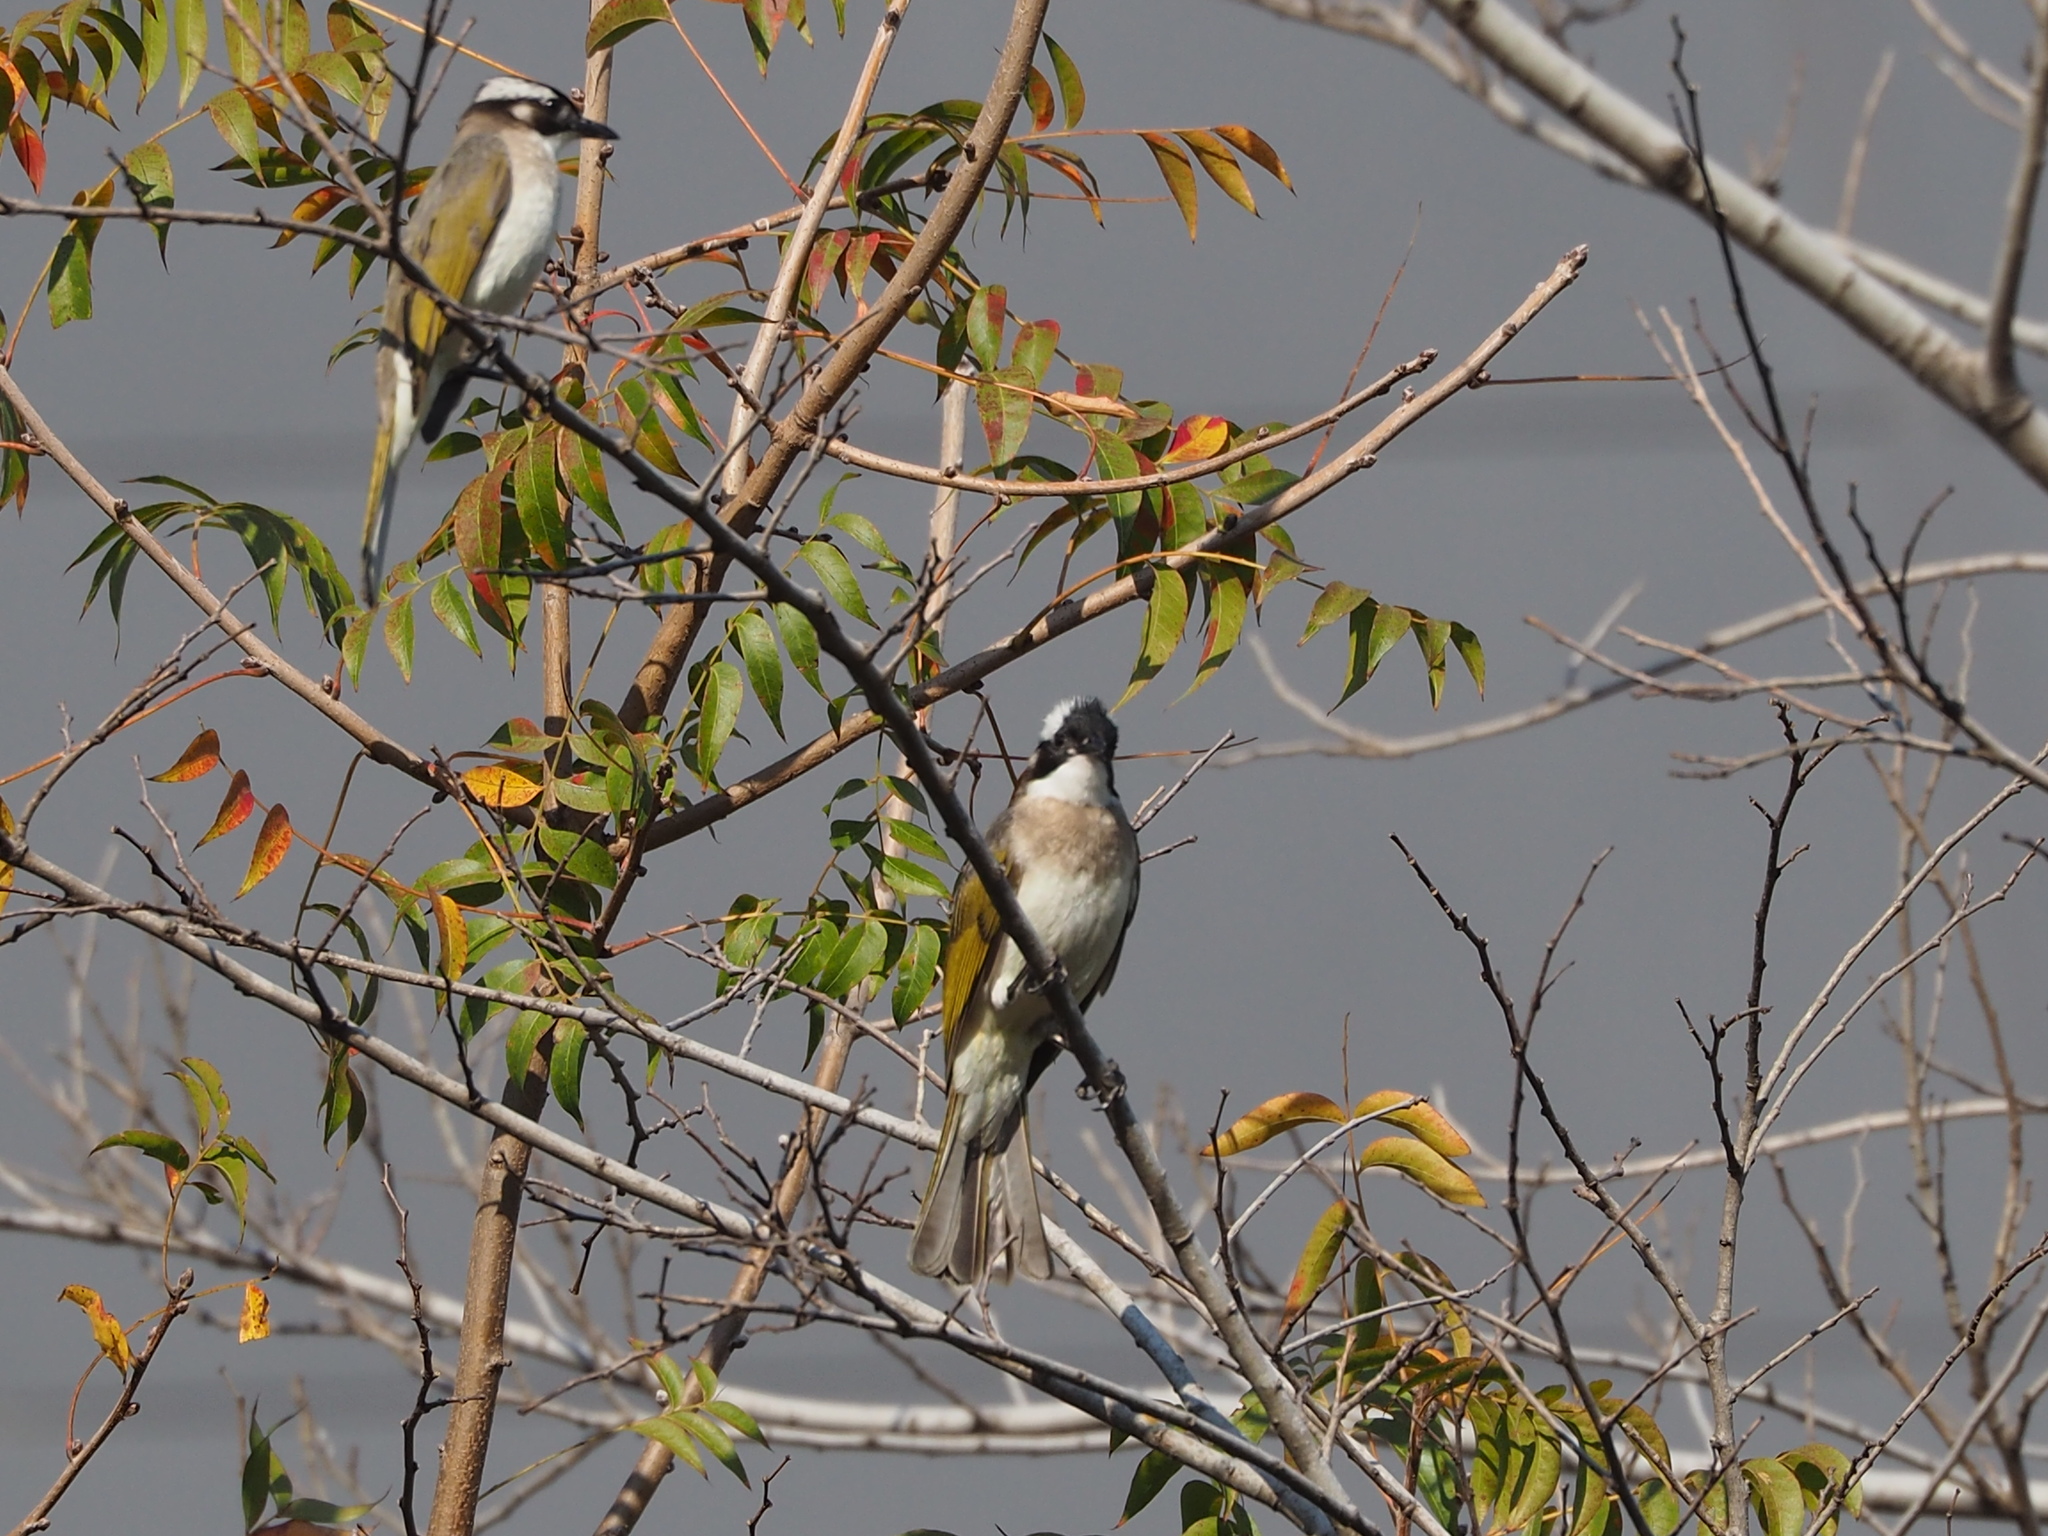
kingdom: Animalia
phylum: Chordata
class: Aves
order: Passeriformes
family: Pycnonotidae
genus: Pycnonotus
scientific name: Pycnonotus sinensis
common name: Light-vented bulbul
